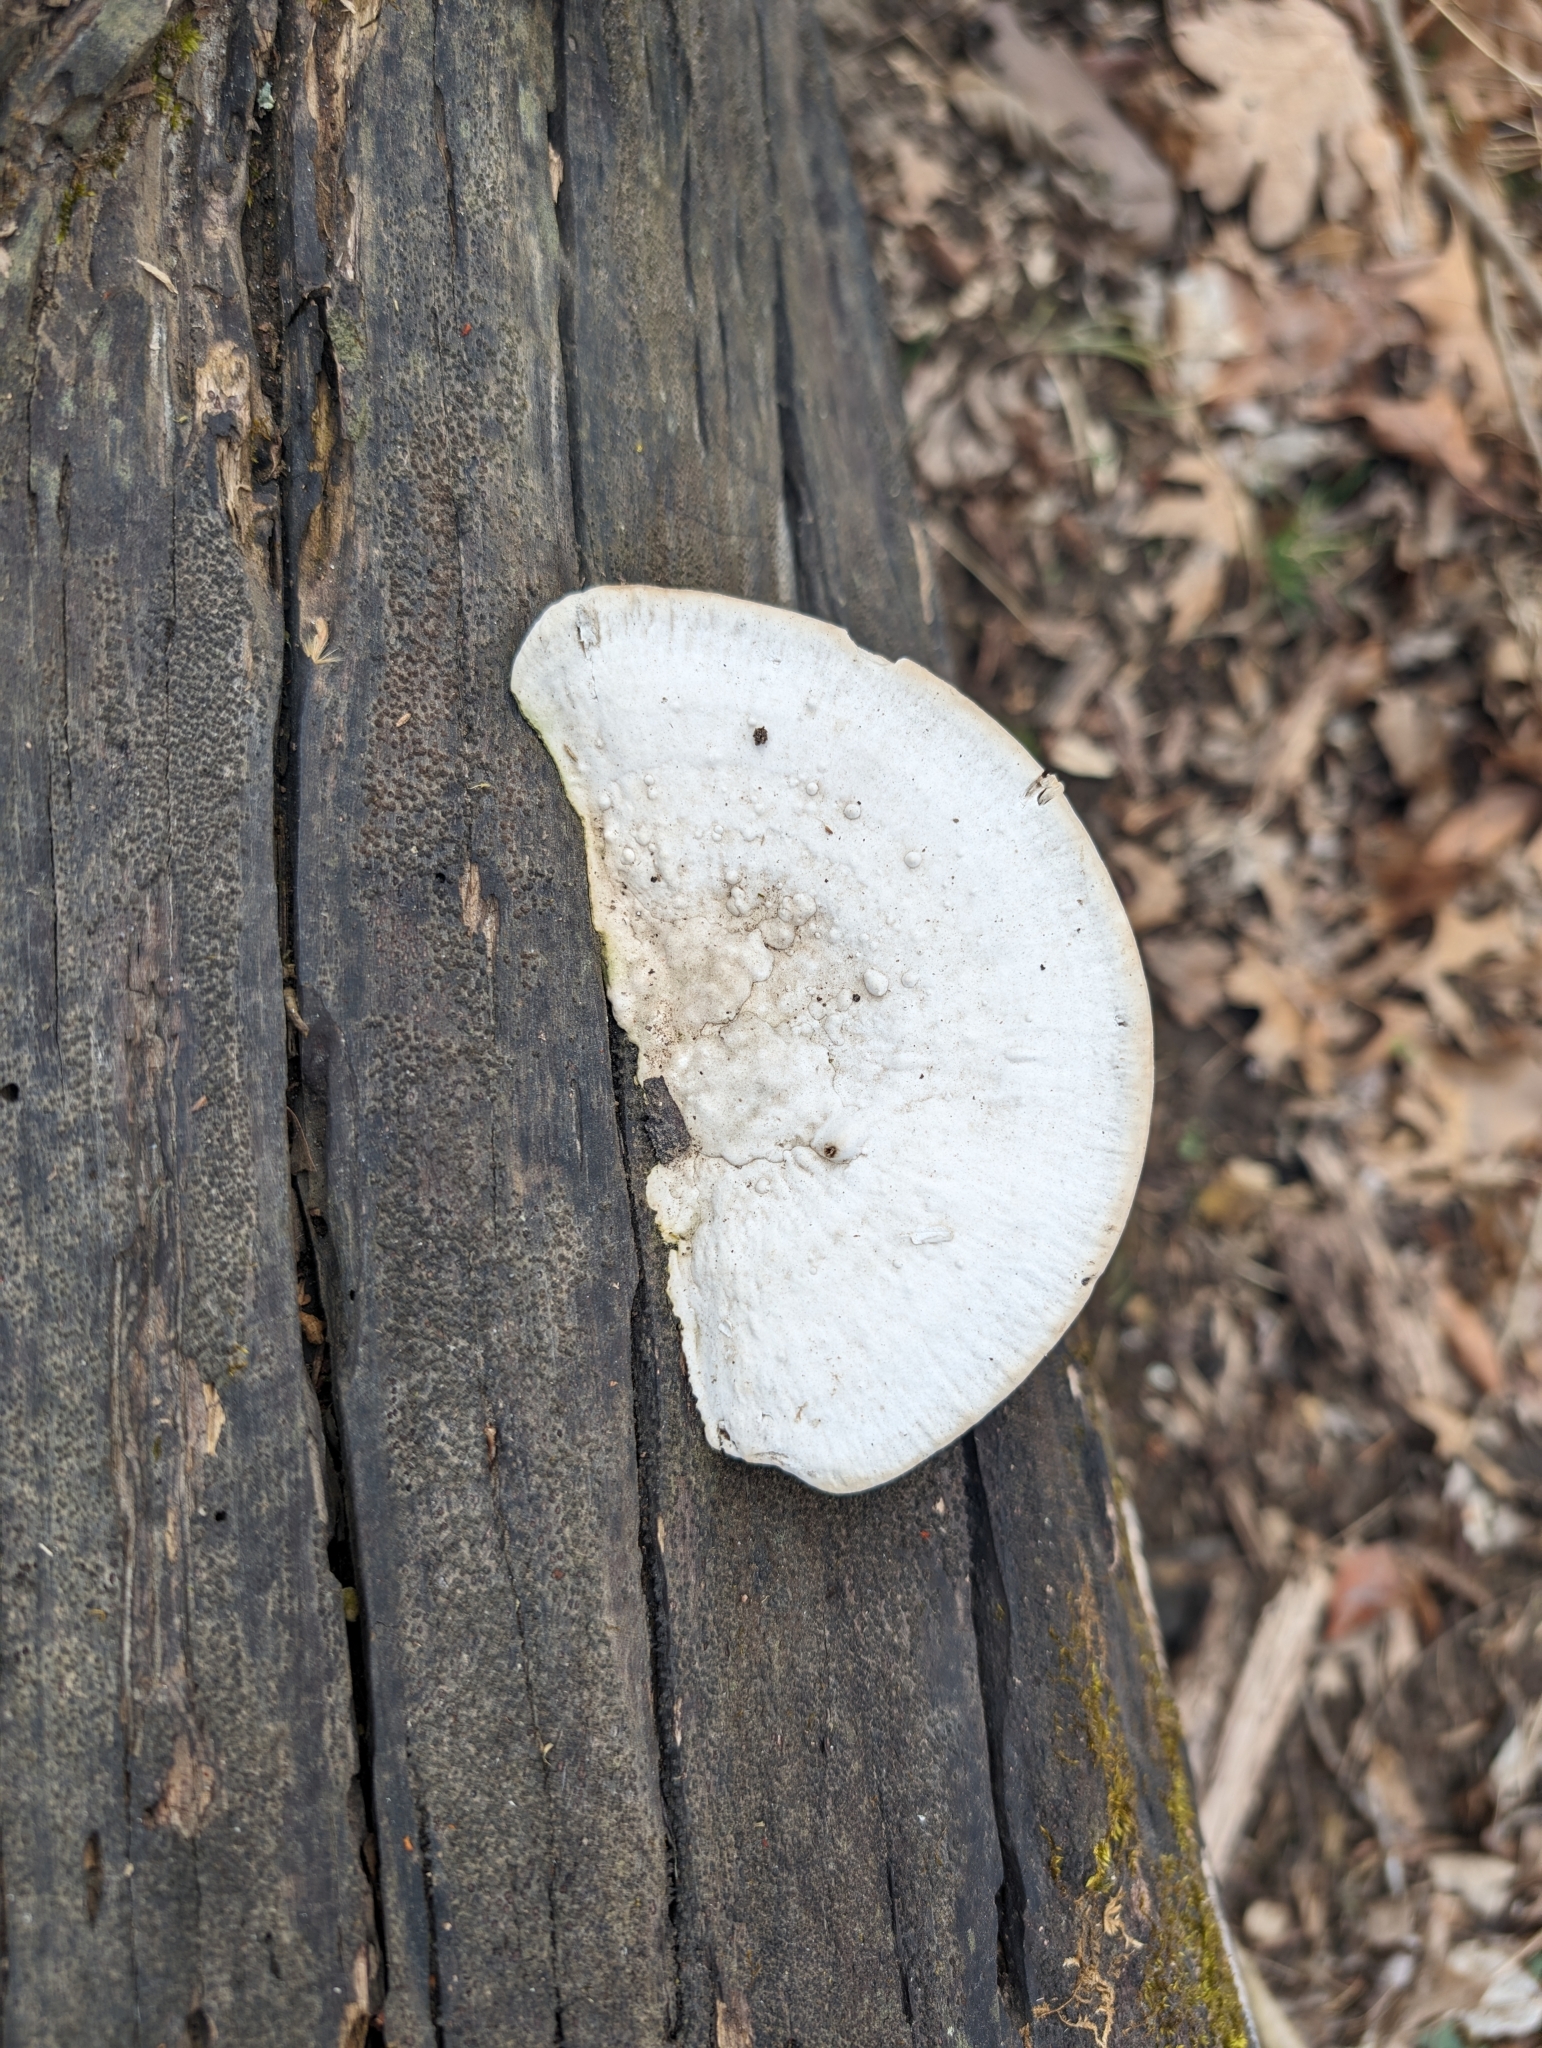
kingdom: Fungi
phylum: Basidiomycota
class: Agaricomycetes
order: Polyporales
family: Polyporaceae
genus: Trametes
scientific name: Trametes
